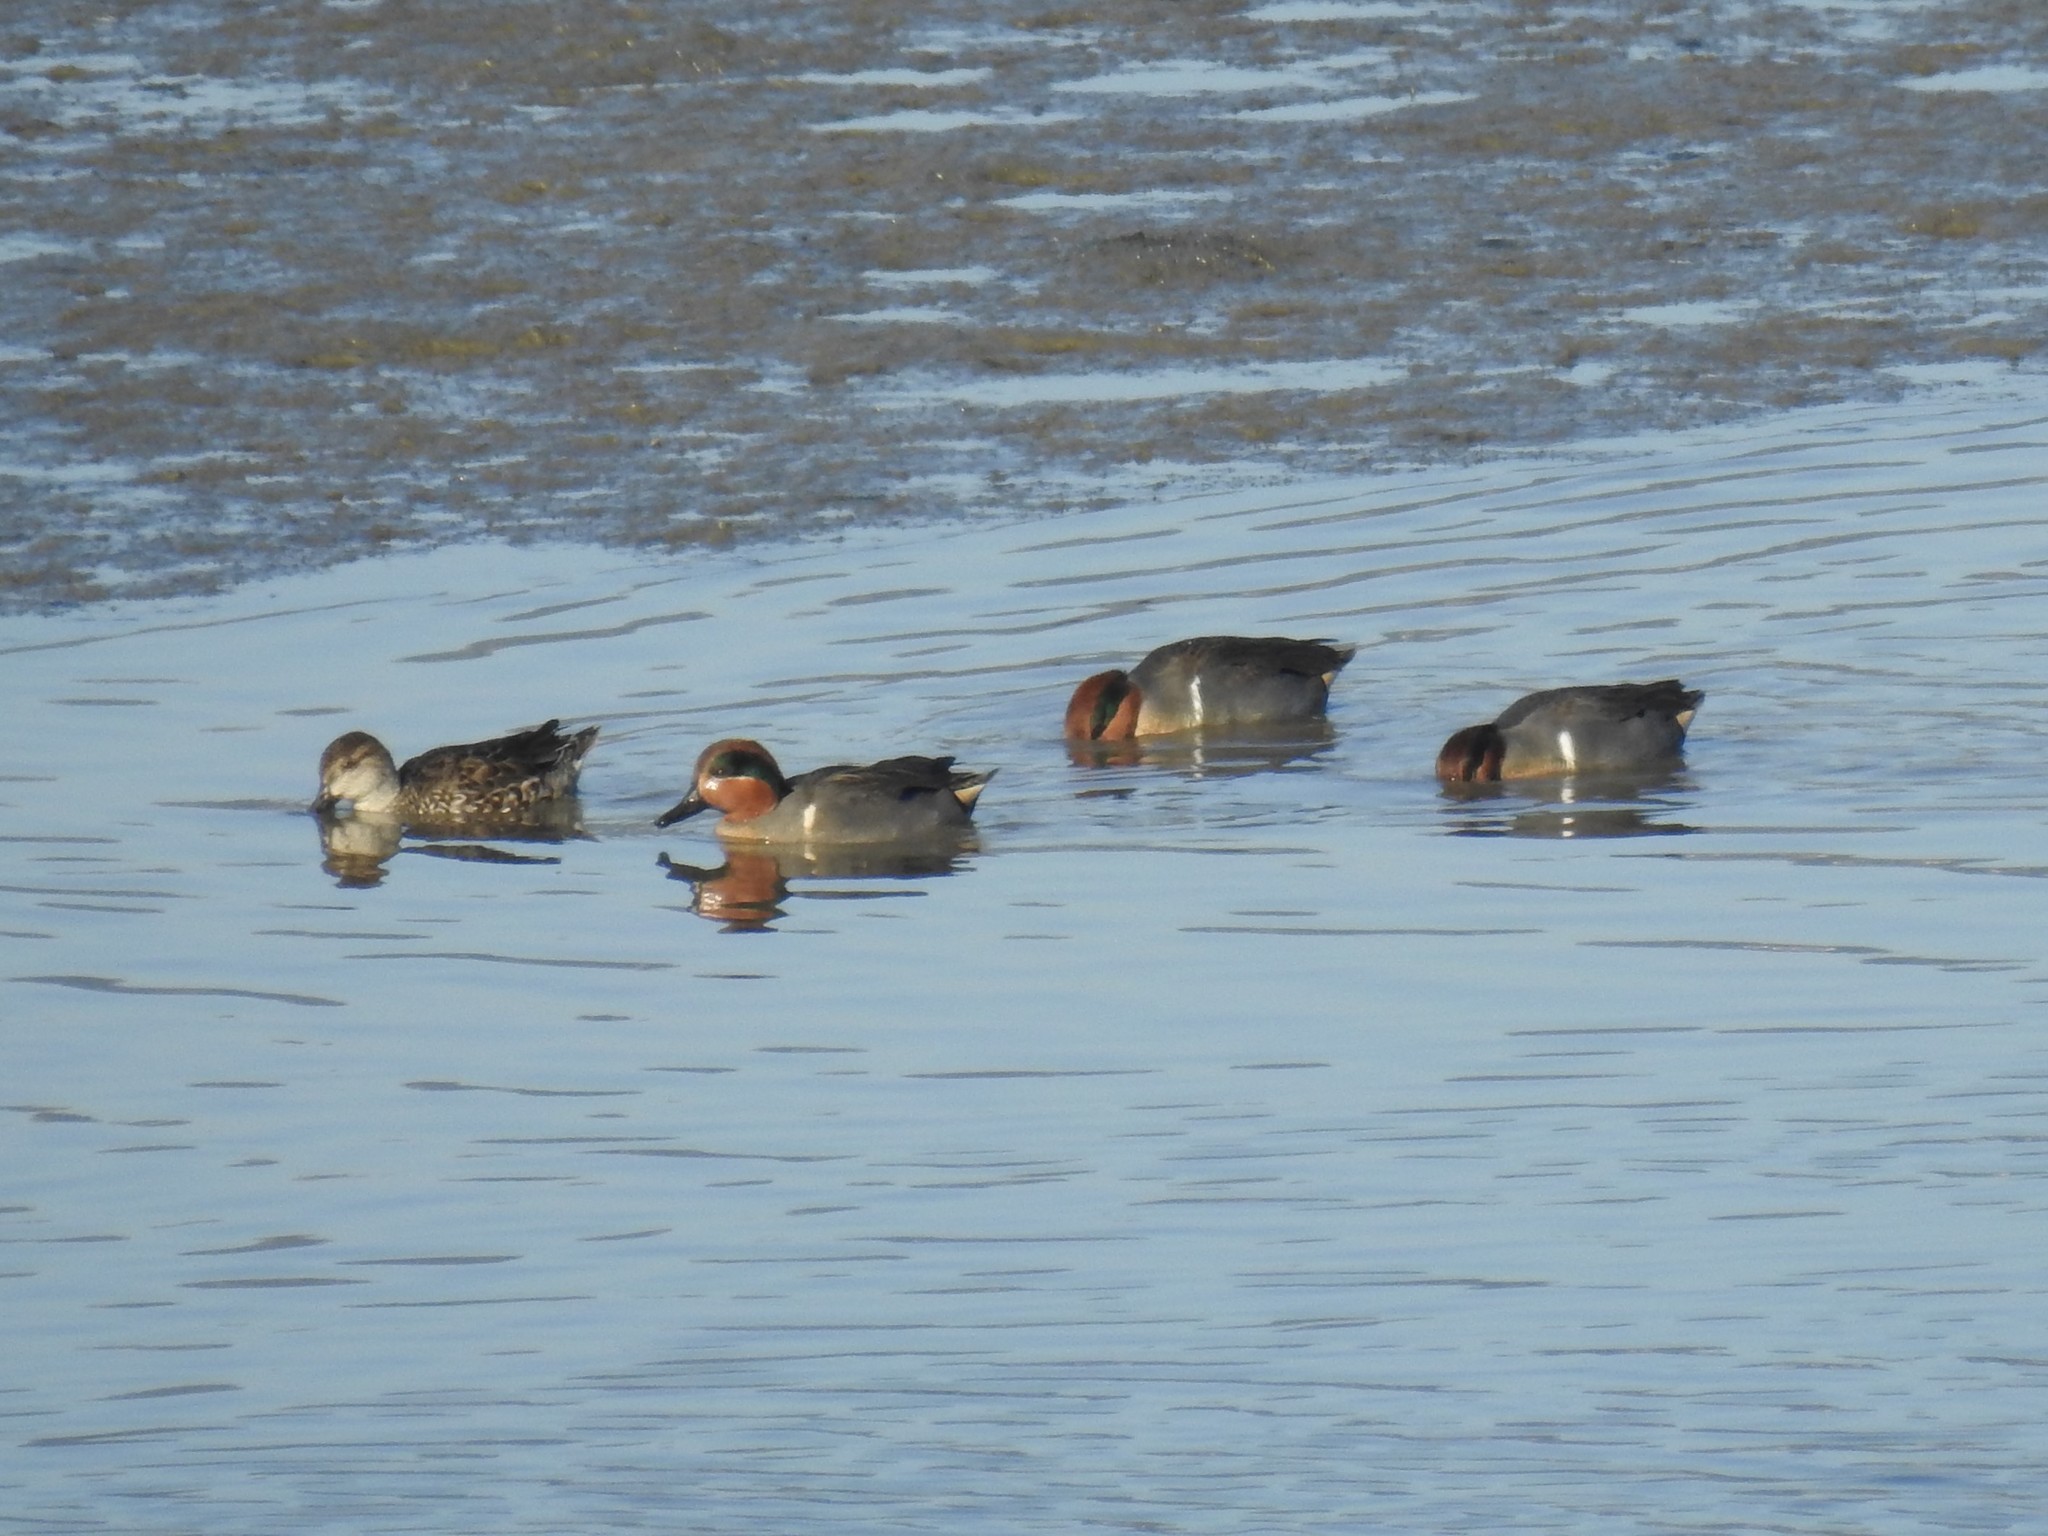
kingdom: Animalia
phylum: Chordata
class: Aves
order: Anseriformes
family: Anatidae
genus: Anas
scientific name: Anas crecca
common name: Eurasian teal
